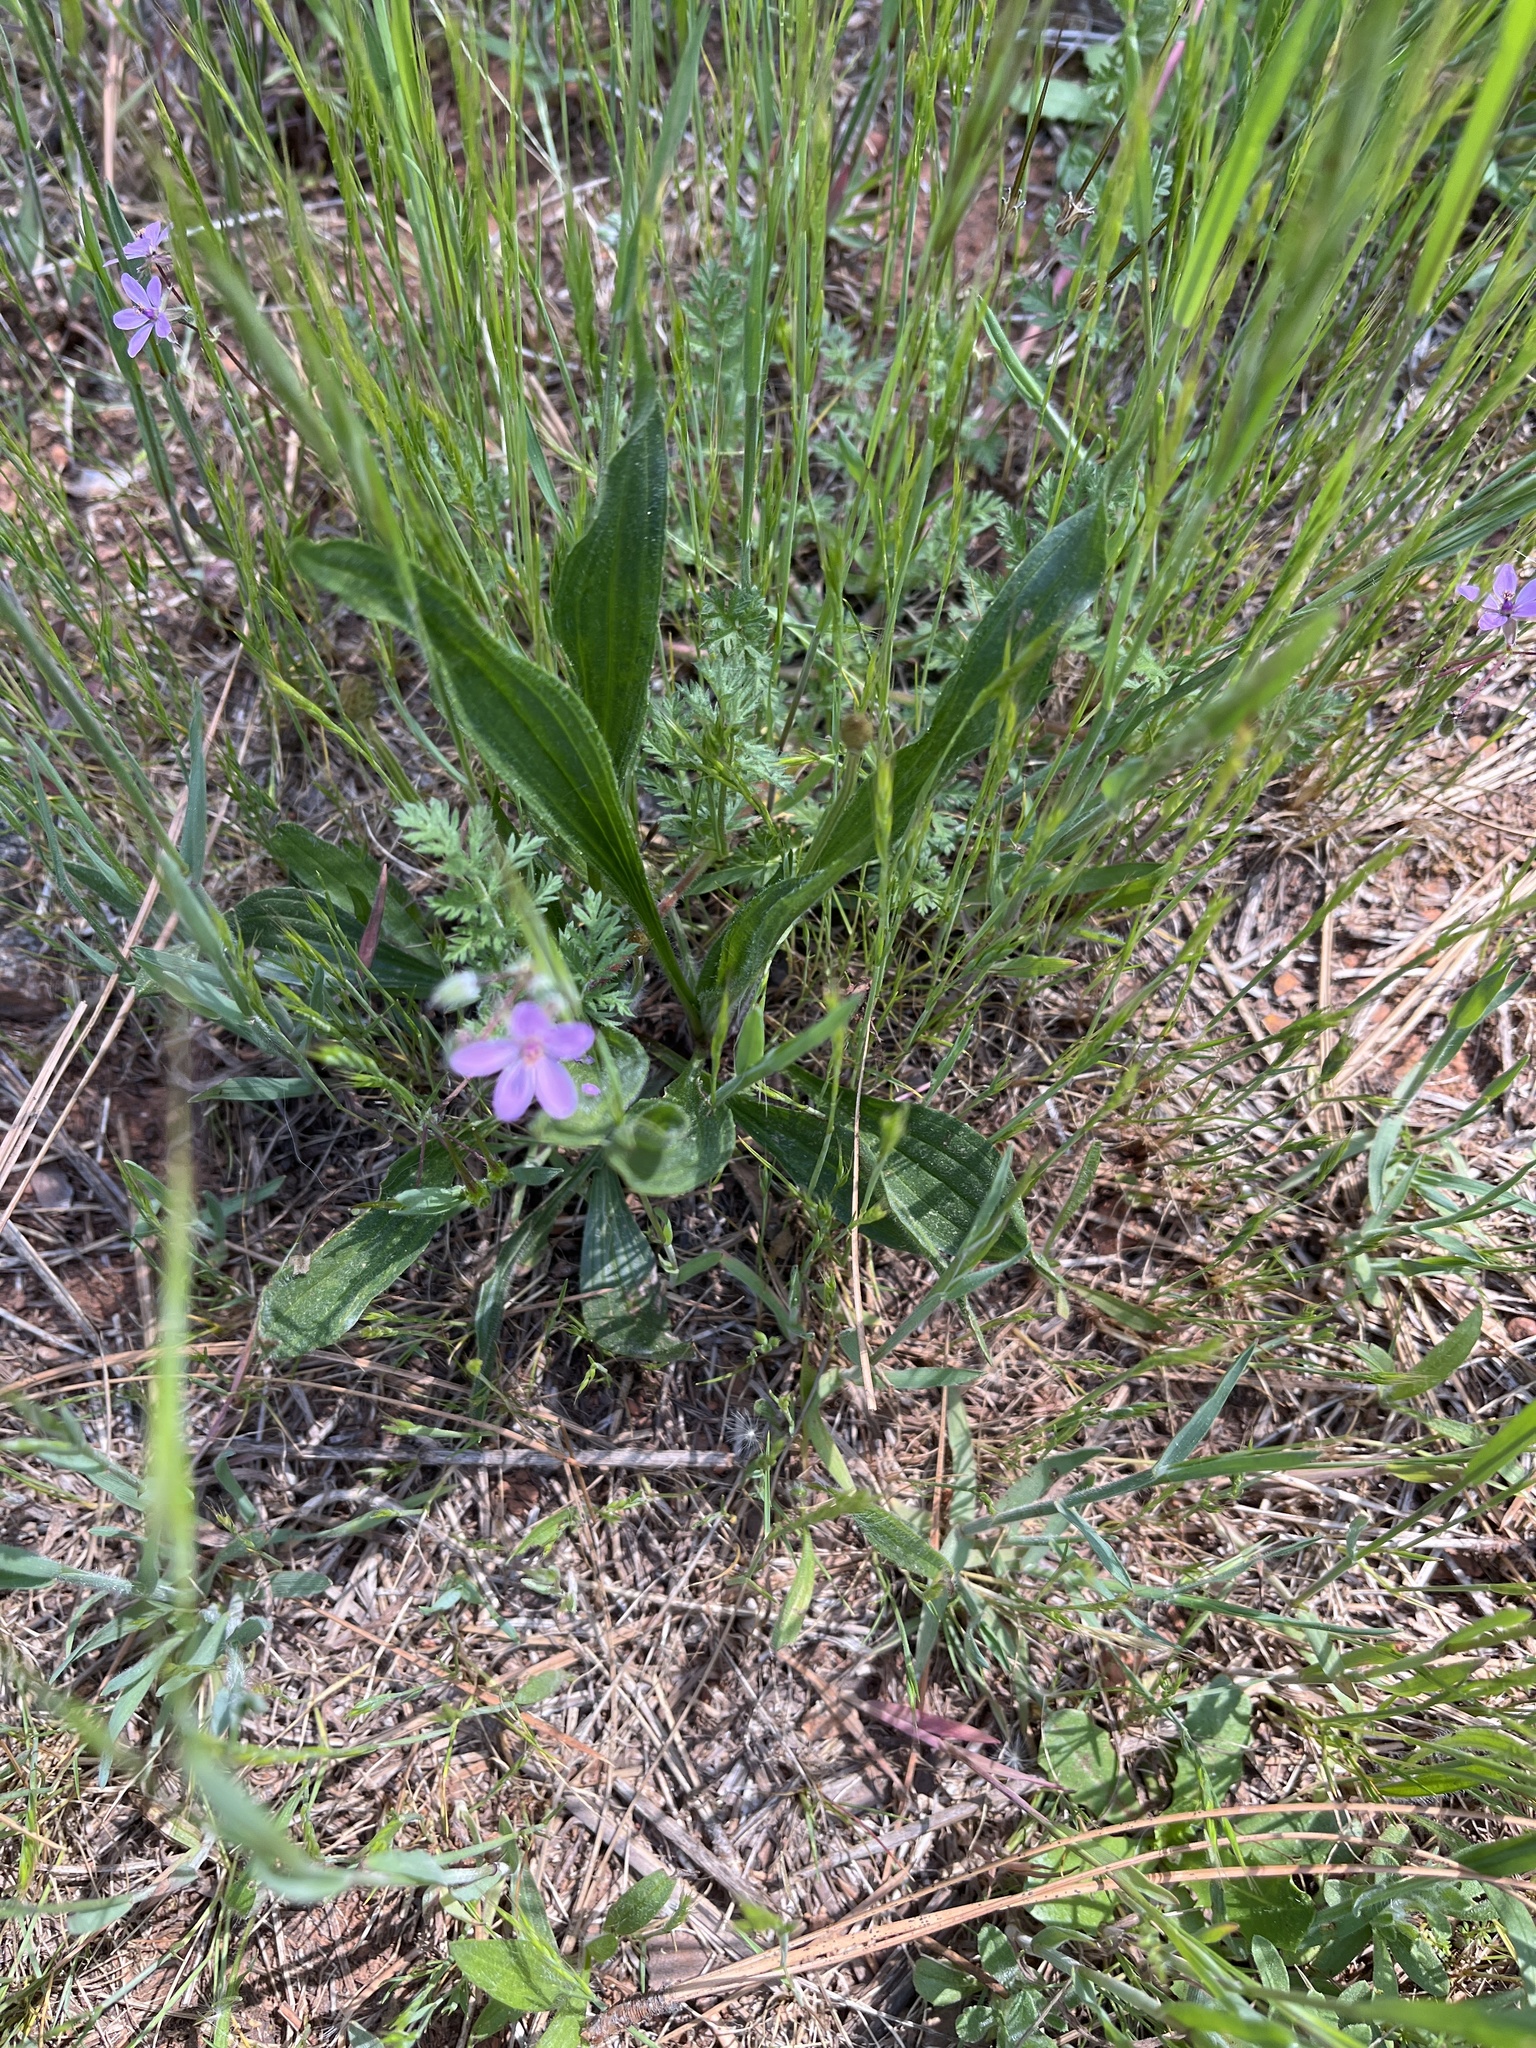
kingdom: Plantae
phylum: Tracheophyta
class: Magnoliopsida
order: Geraniales
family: Geraniaceae
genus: Erodium
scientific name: Erodium cicutarium
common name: Common stork's-bill
